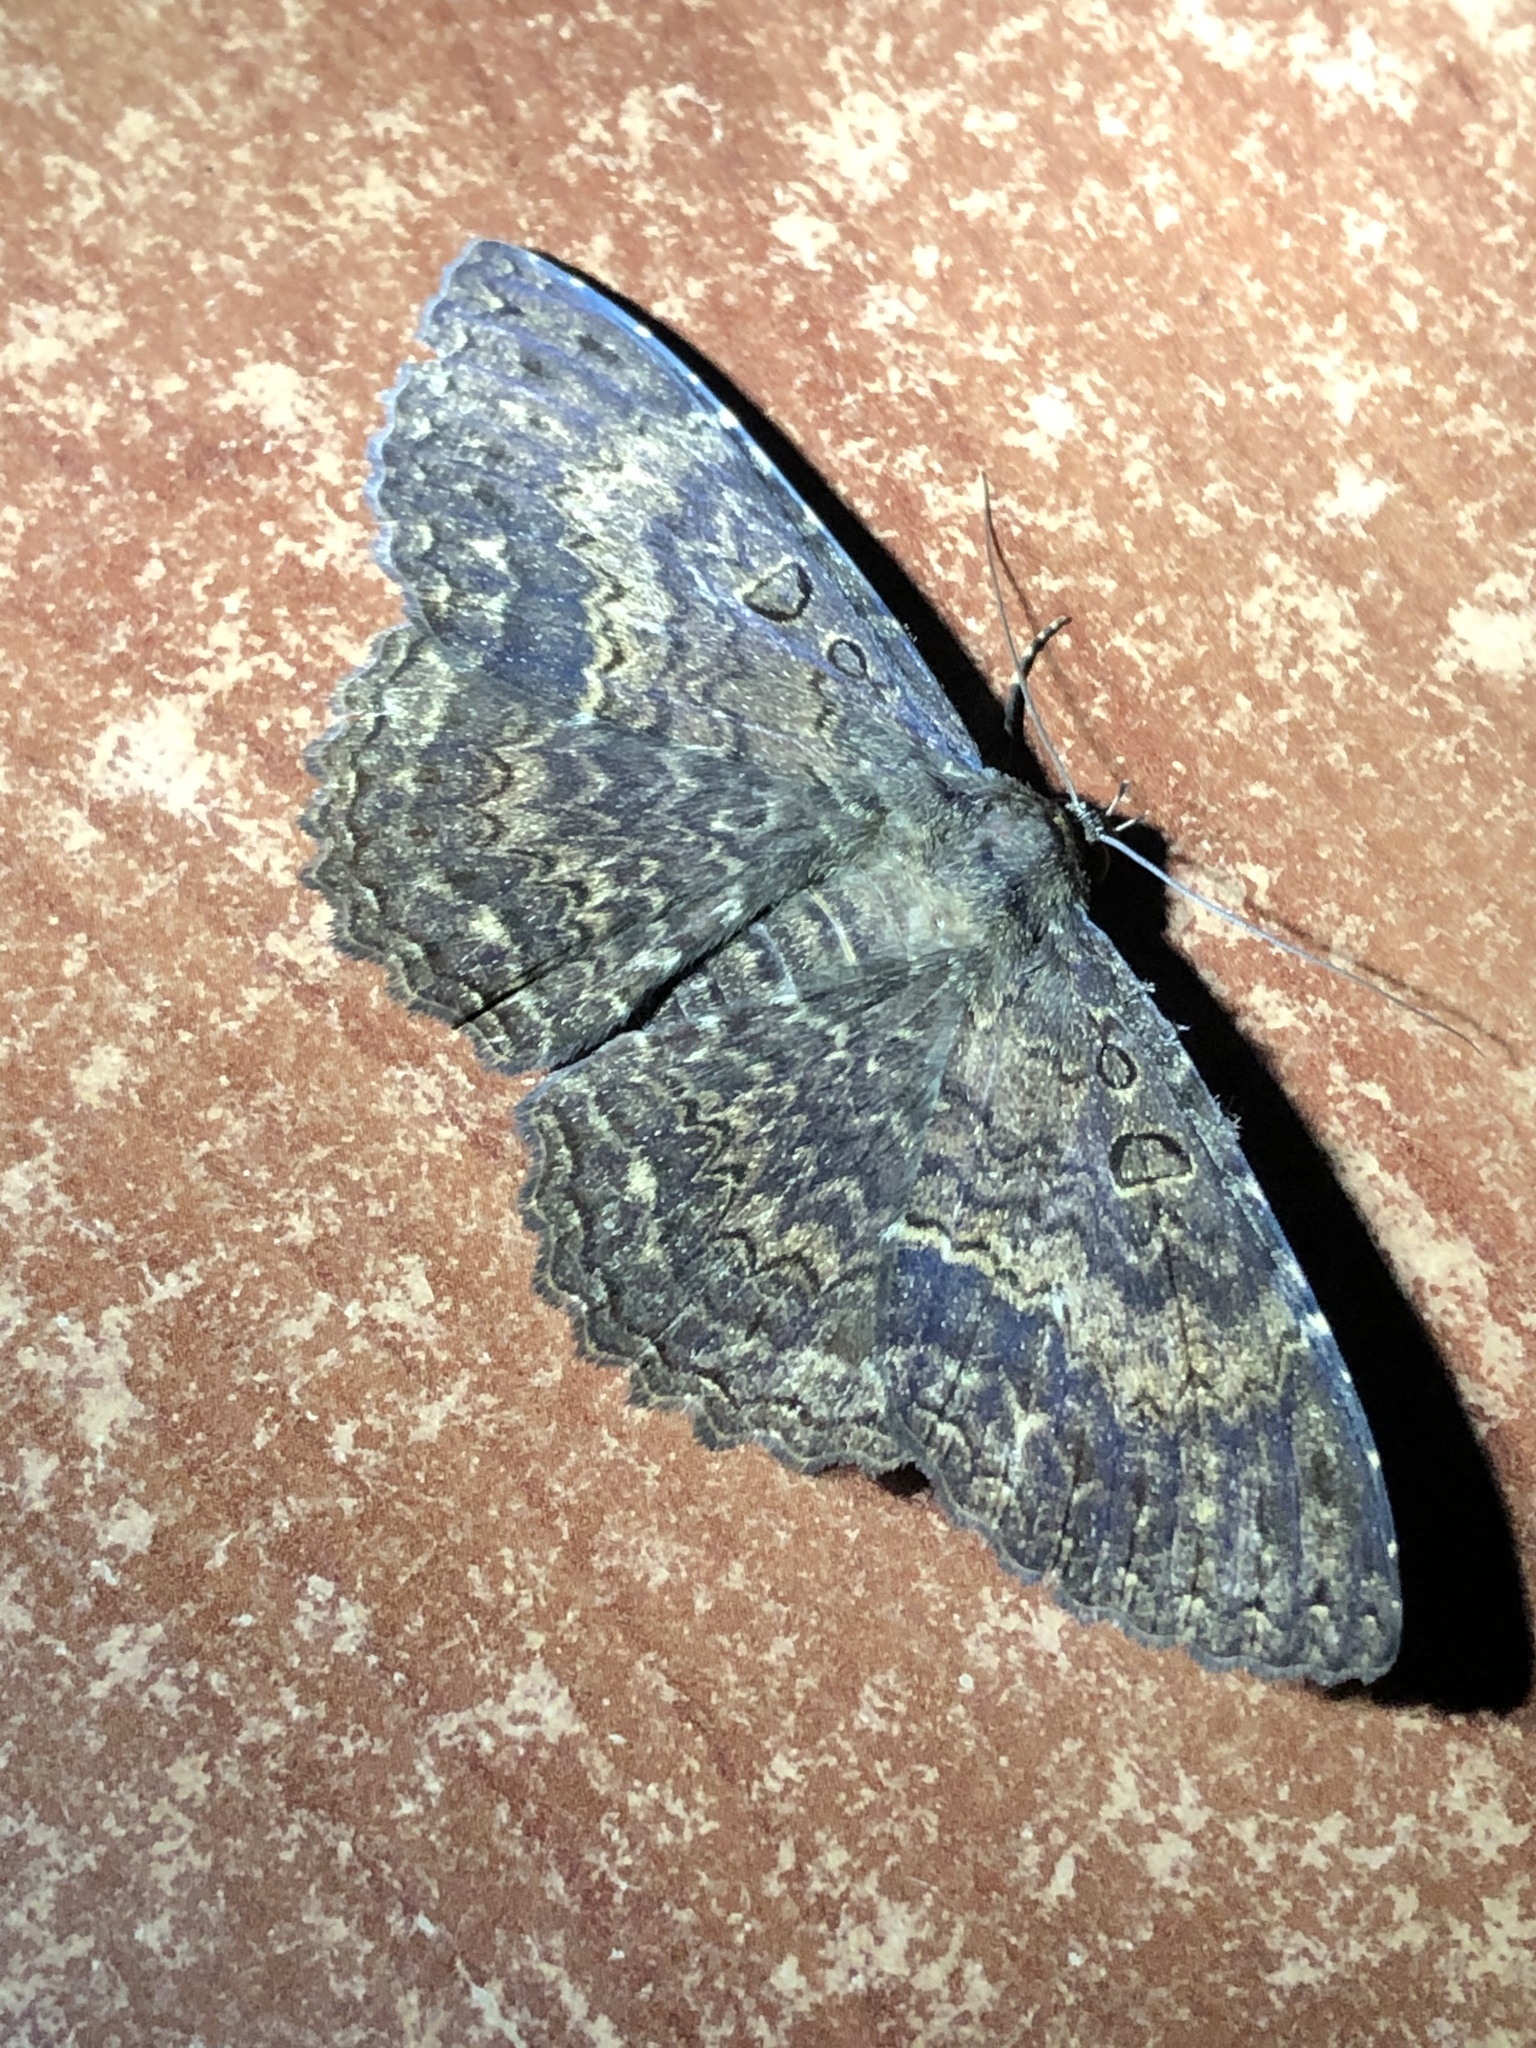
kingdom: Animalia
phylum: Arthropoda
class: Insecta
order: Lepidoptera
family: Erebidae
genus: Ascalapha
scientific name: Ascalapha odorata
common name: Black witch
